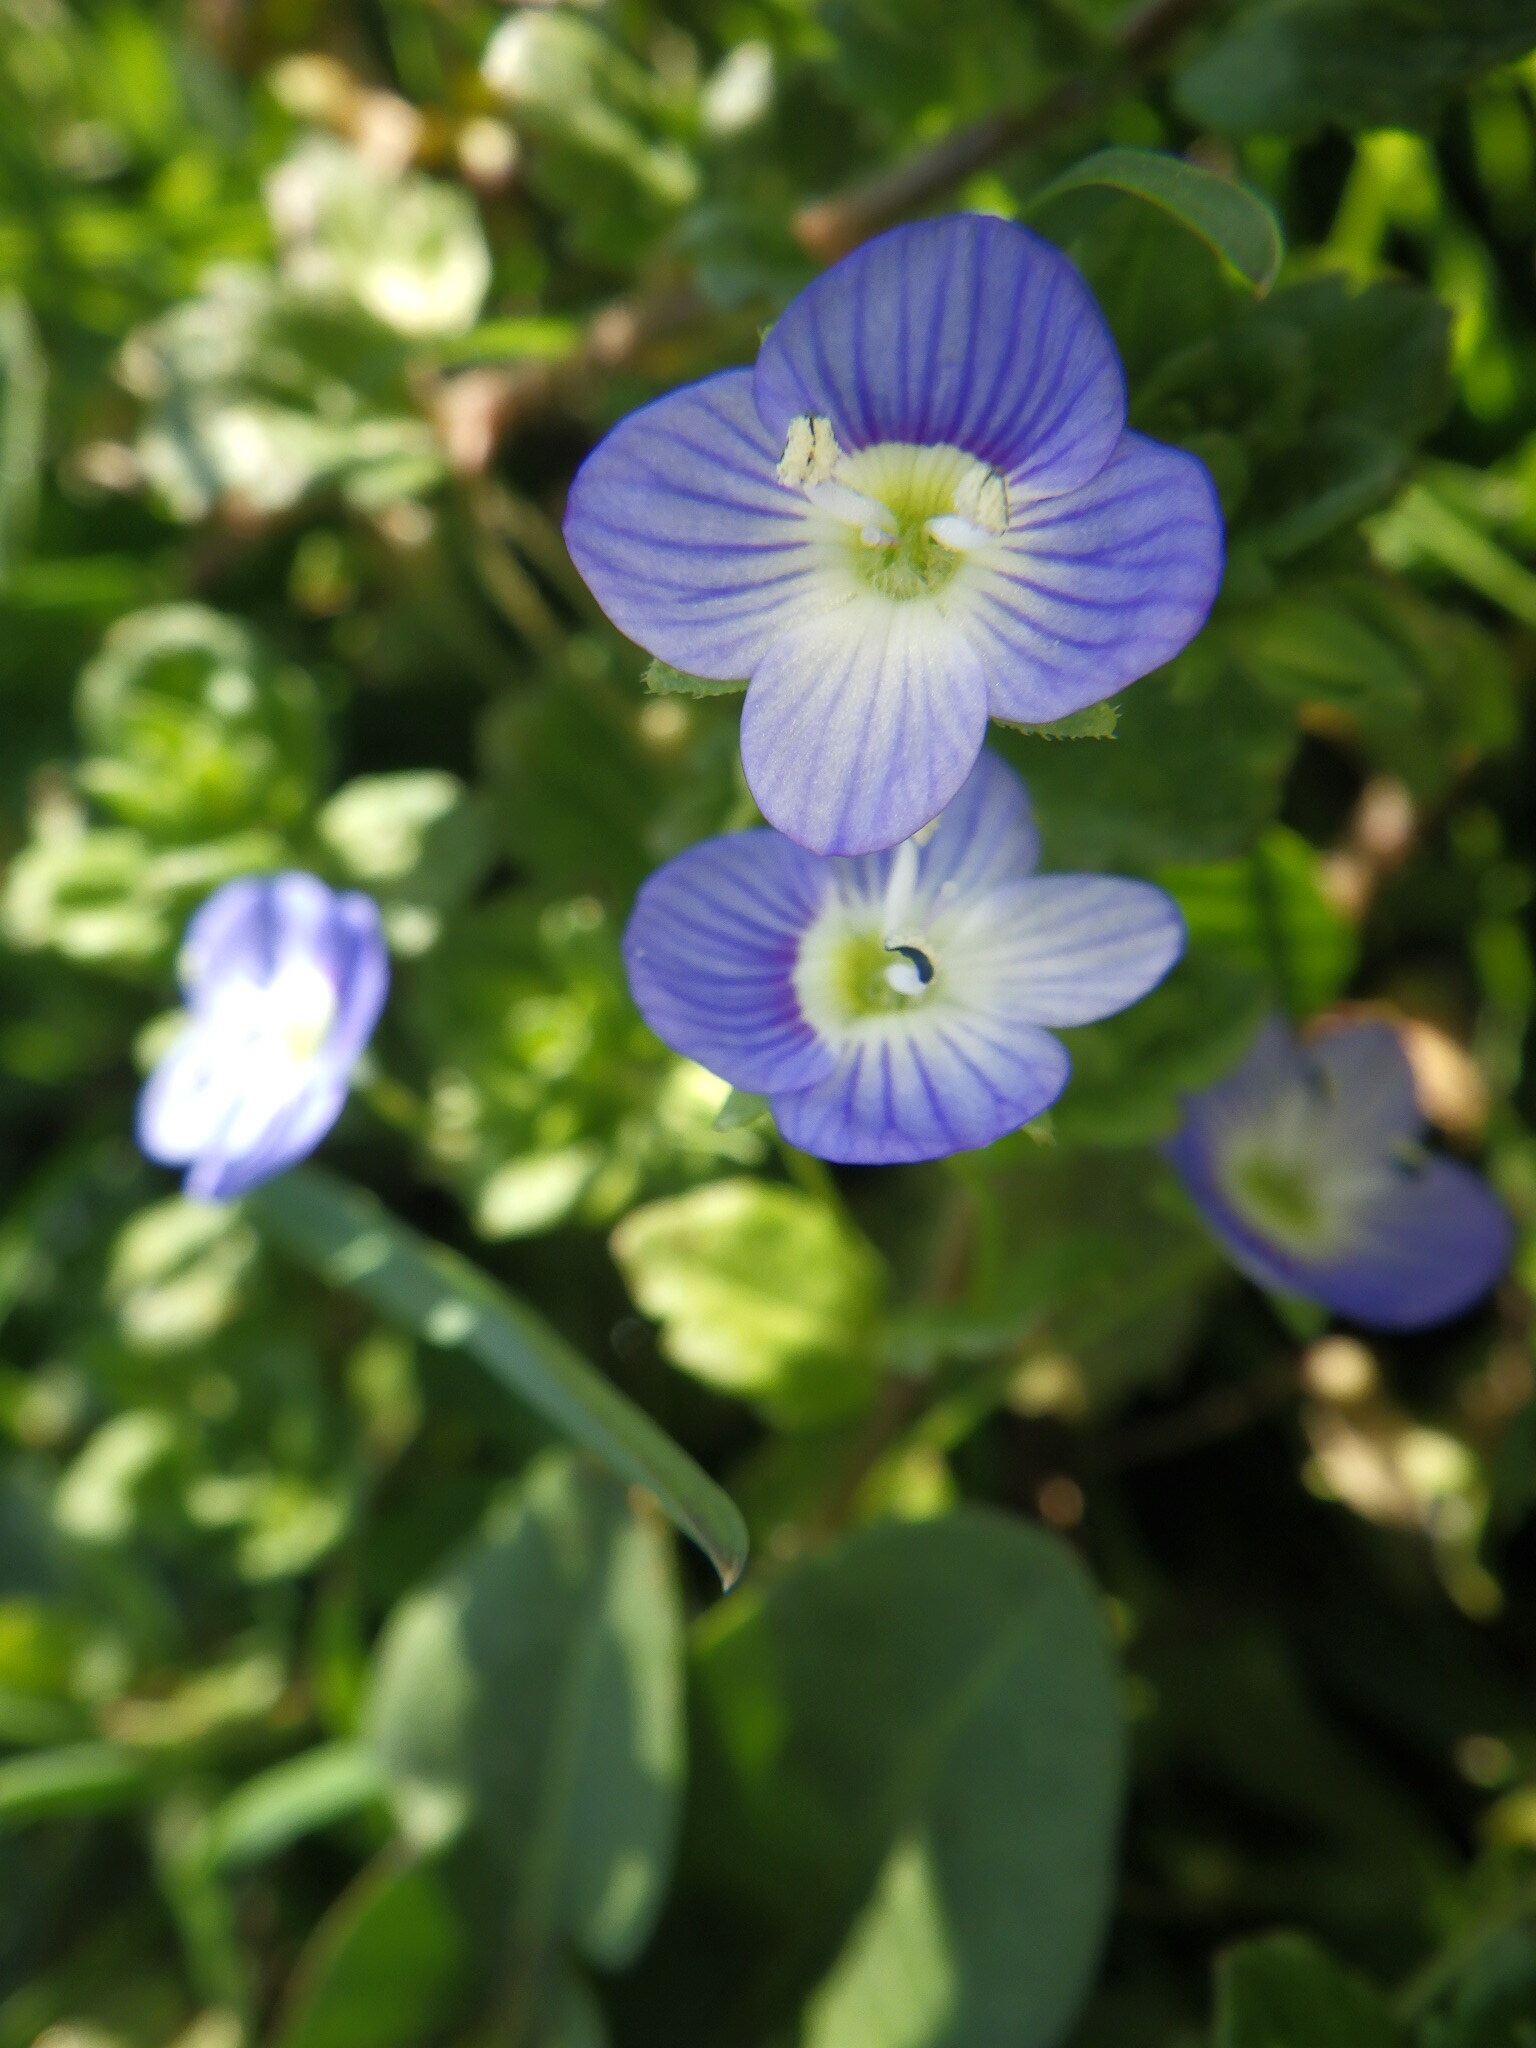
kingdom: Plantae
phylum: Tracheophyta
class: Magnoliopsida
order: Lamiales
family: Plantaginaceae
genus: Veronica
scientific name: Veronica persica
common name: Common field-speedwell
